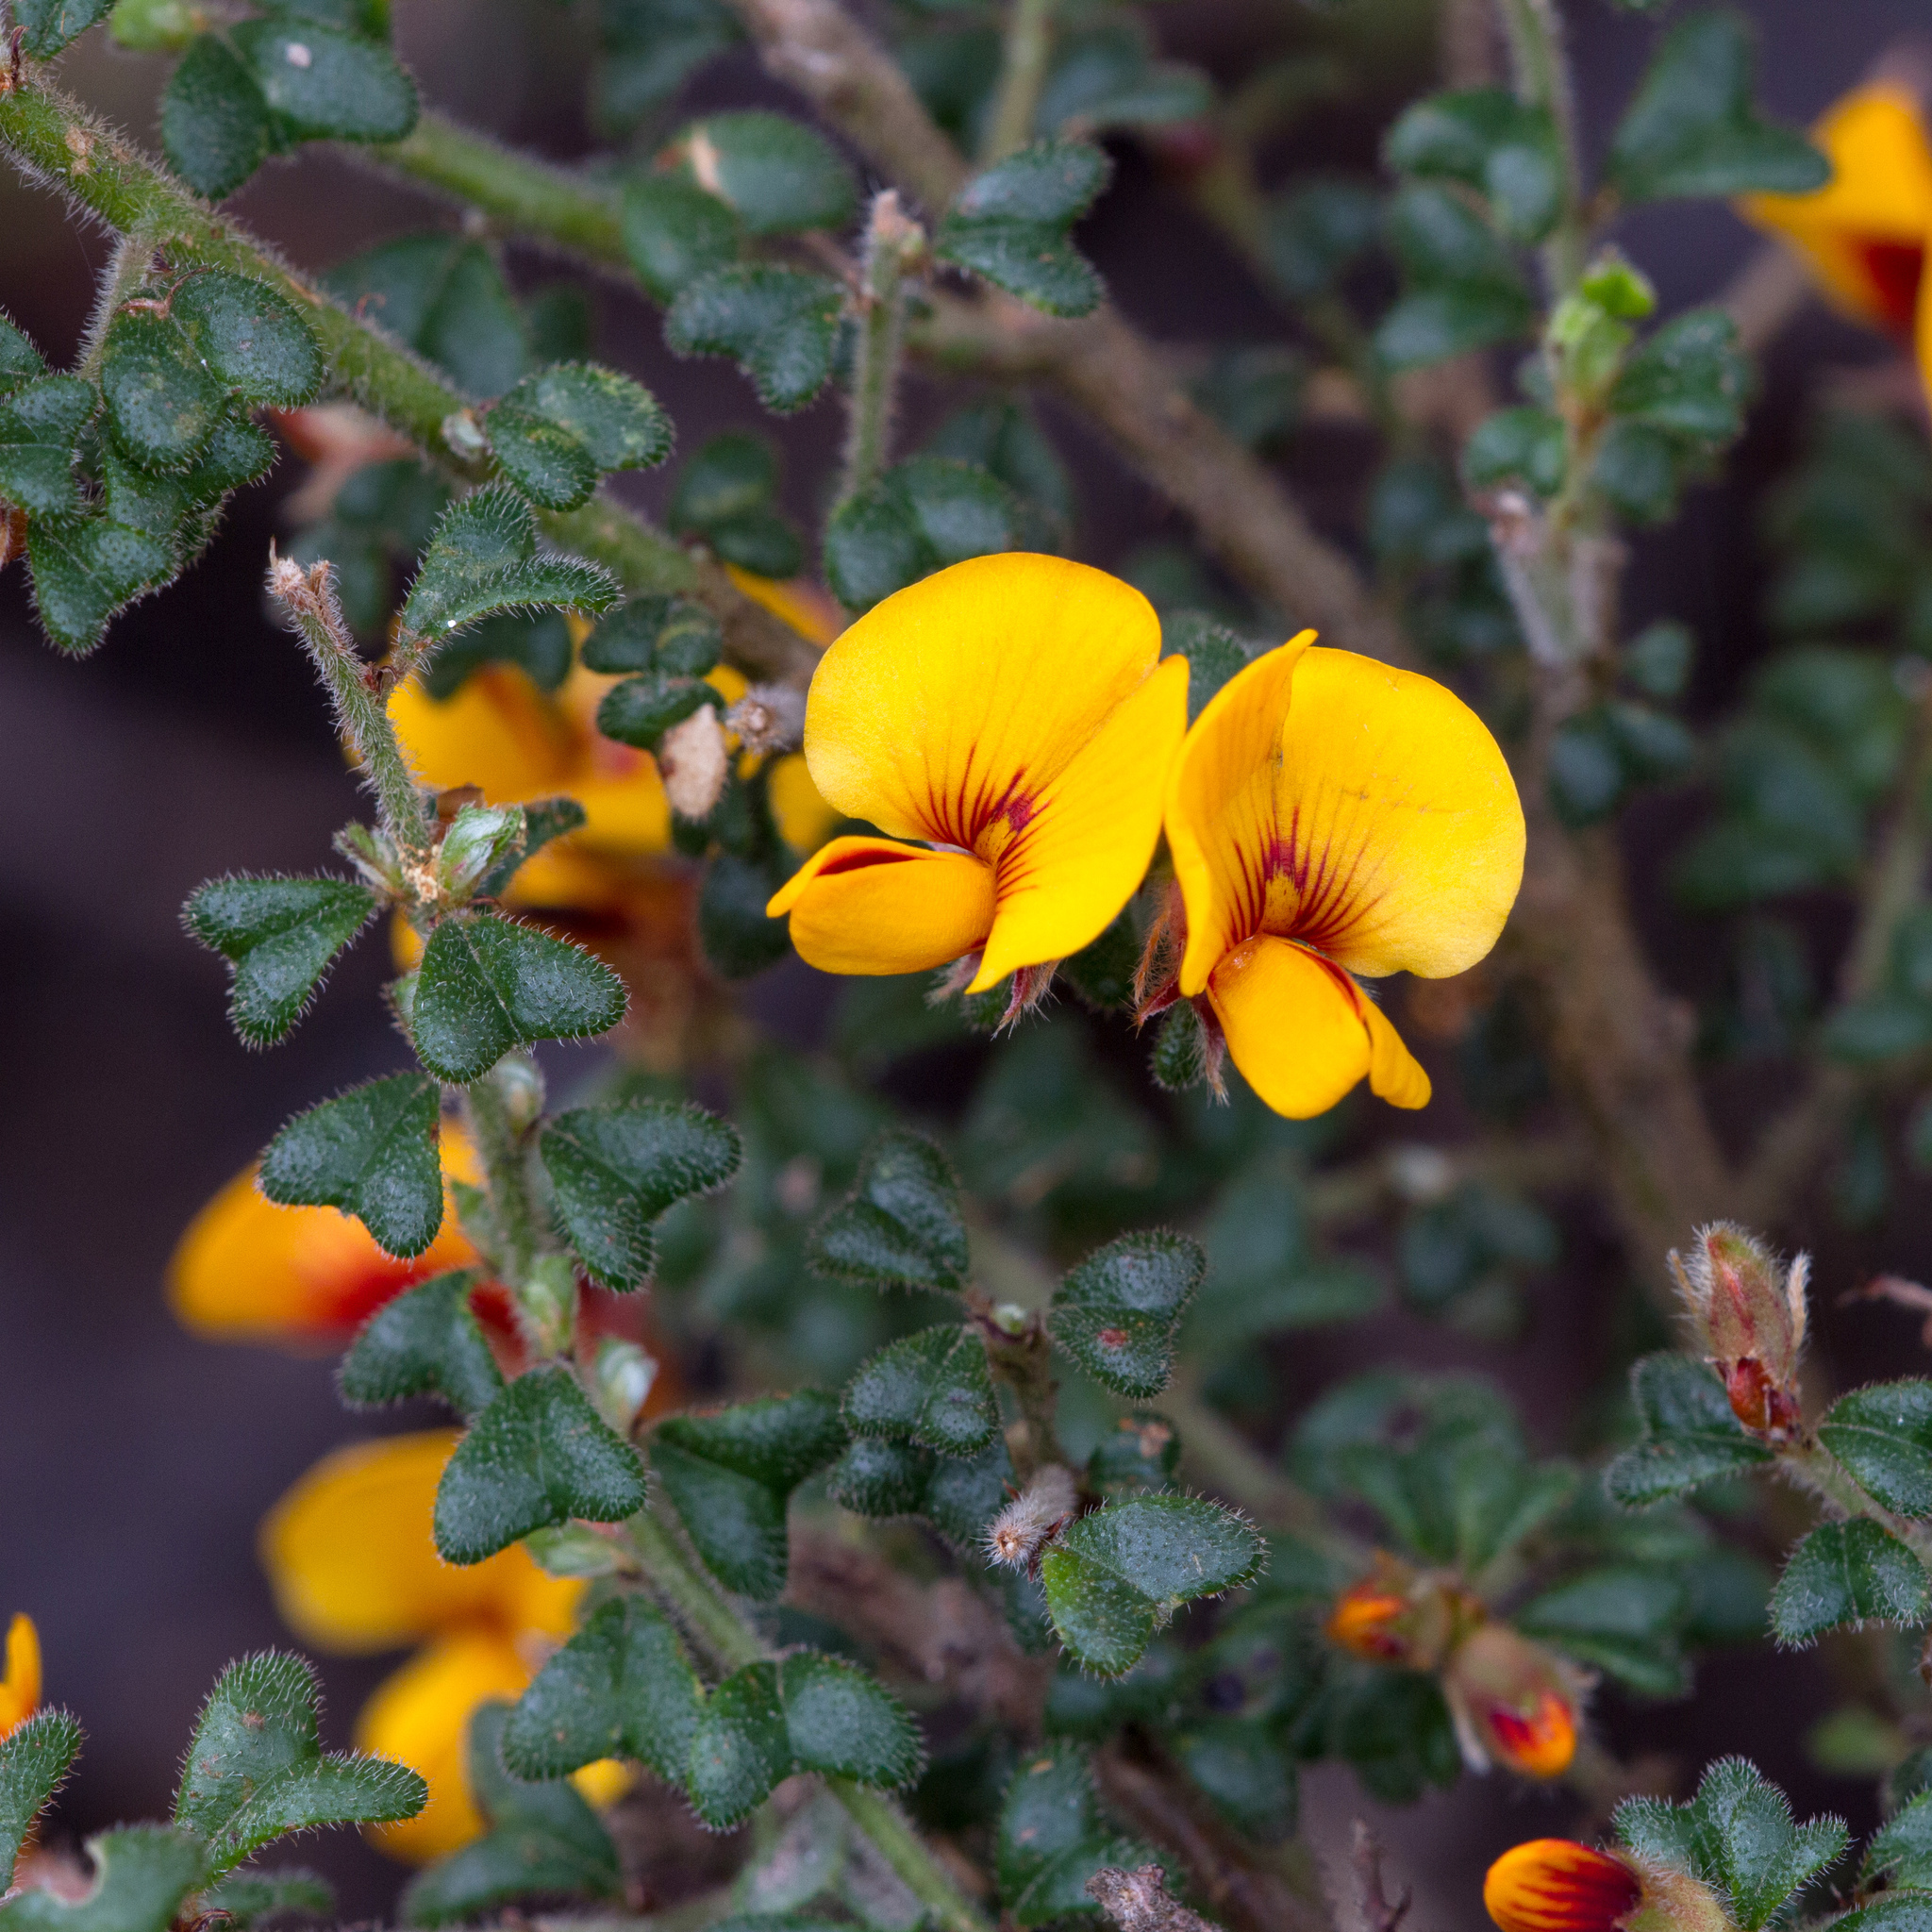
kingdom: Plantae
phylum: Tracheophyta
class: Magnoliopsida
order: Fabales
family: Fabaceae
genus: Pultenaea
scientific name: Pultenaea scabra
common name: Rough bush-pea
